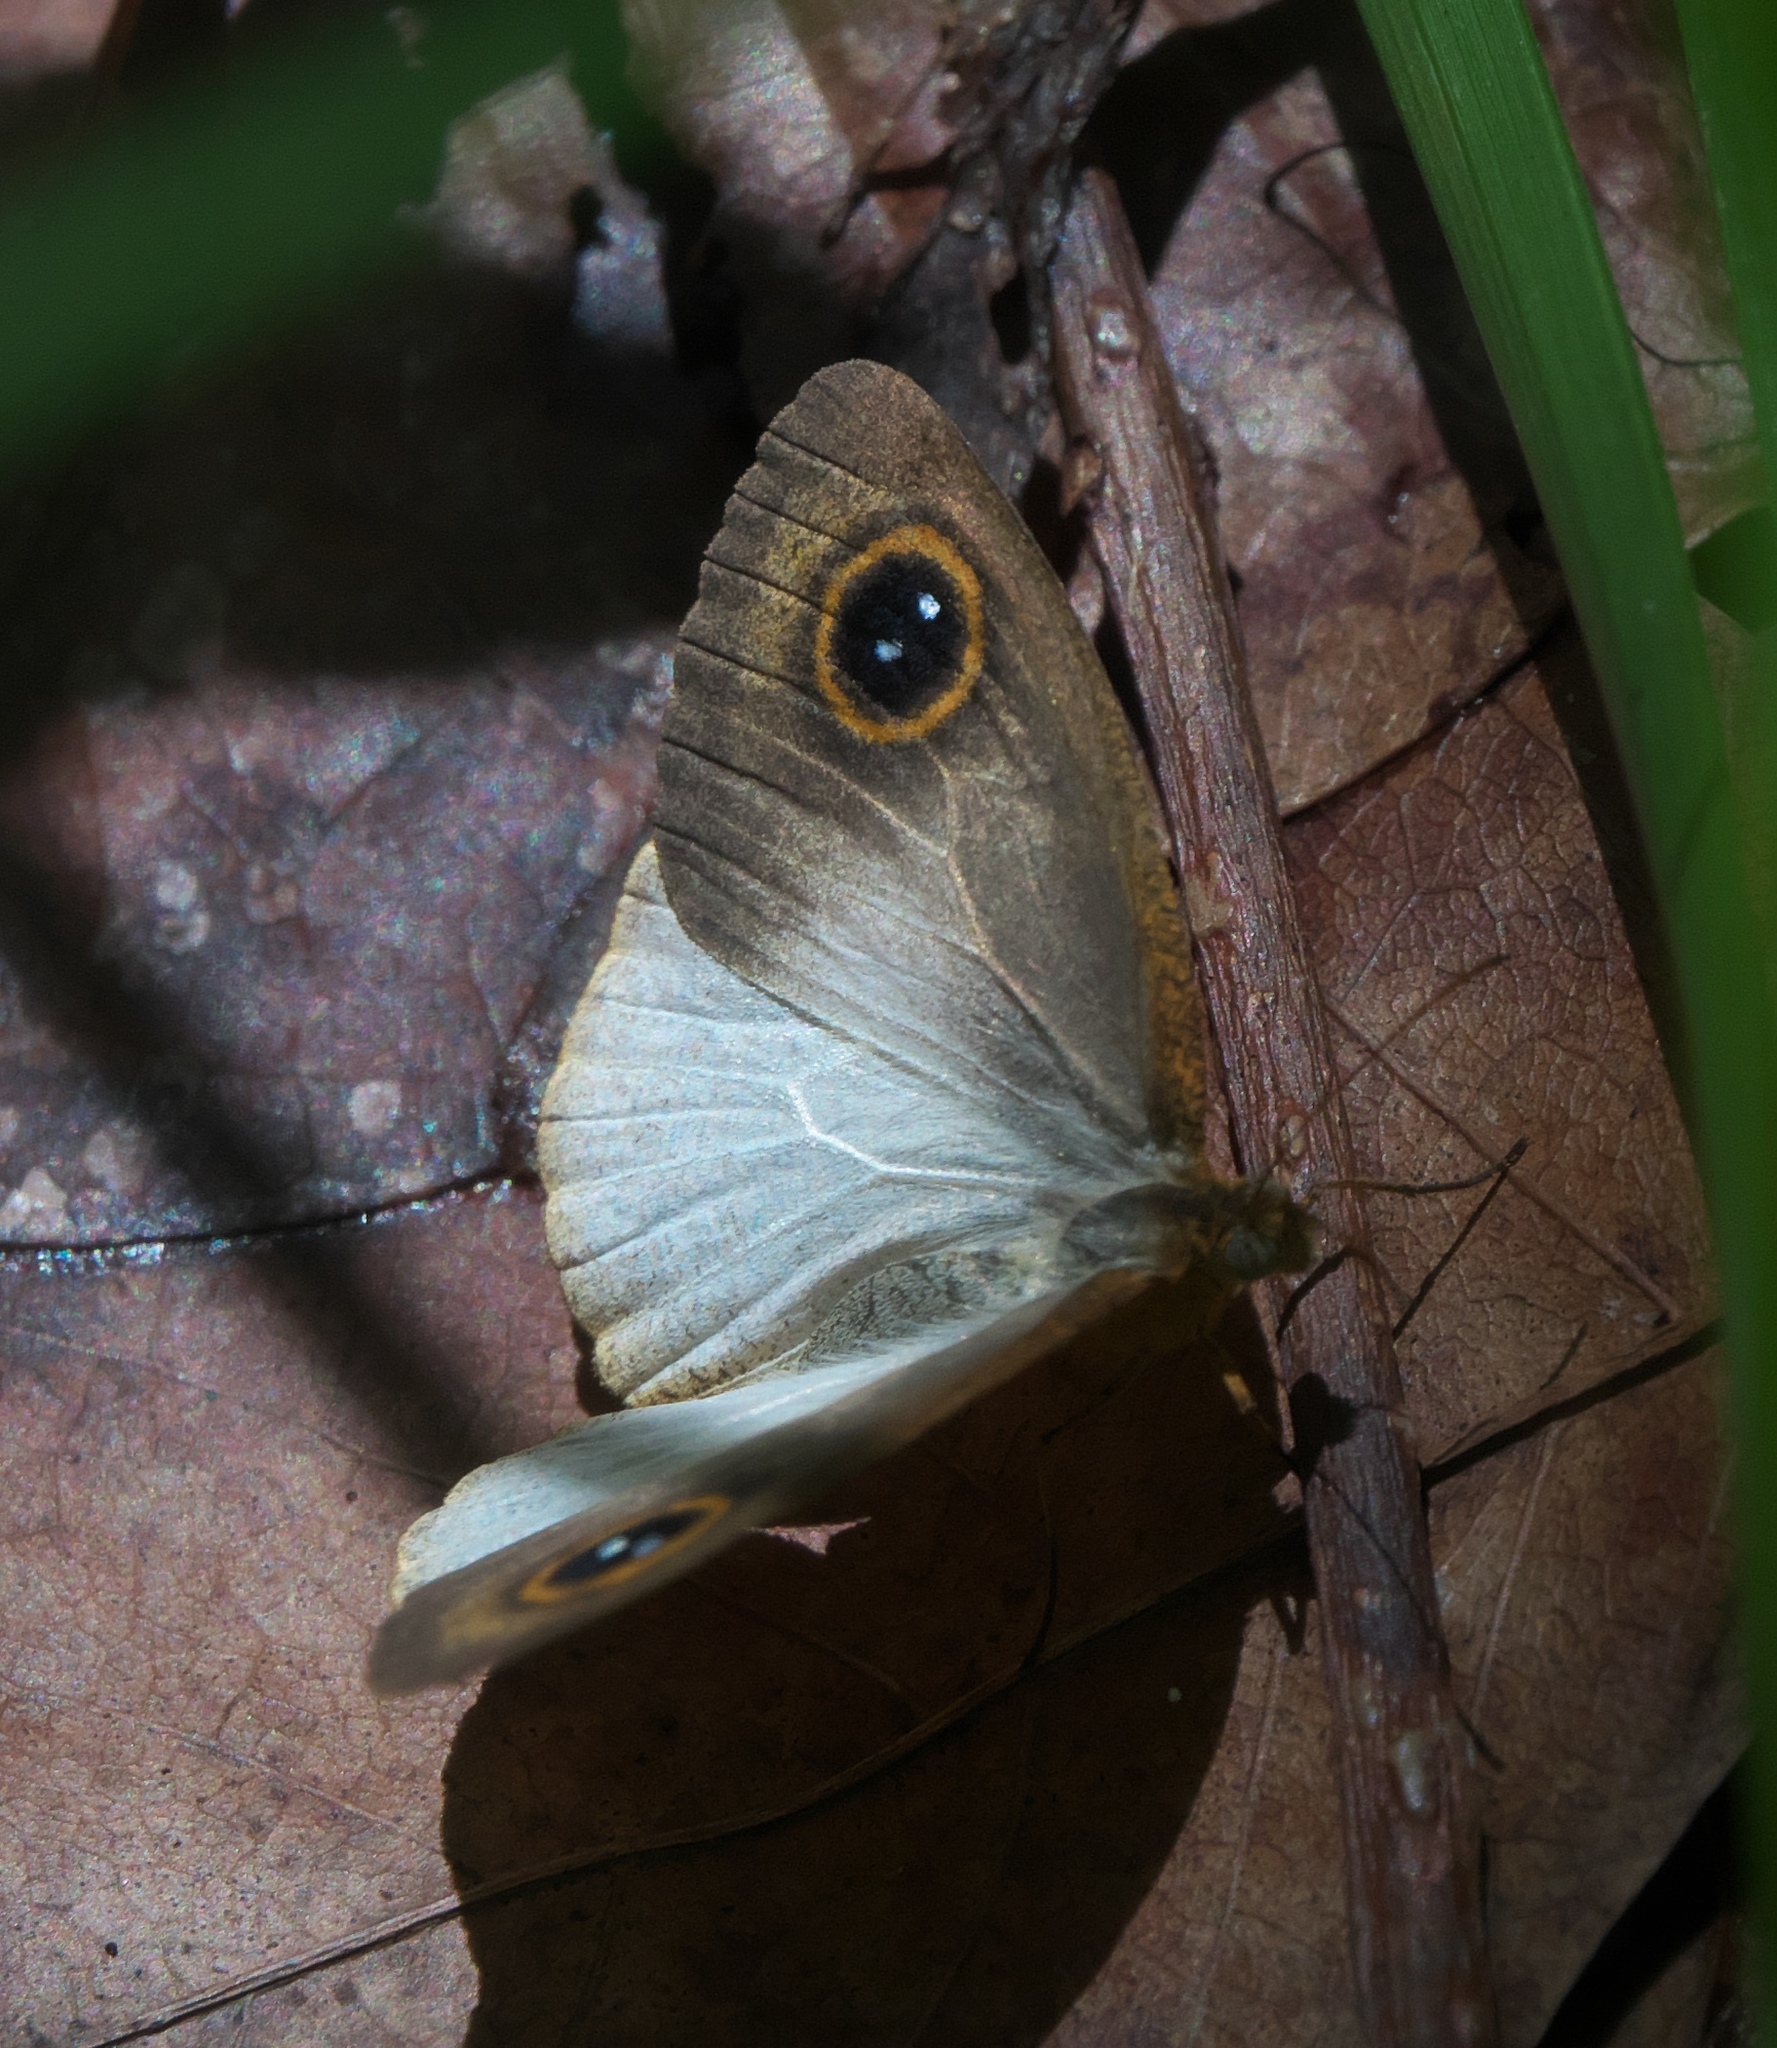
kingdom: Animalia
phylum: Arthropoda
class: Insecta
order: Lepidoptera
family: Nymphalidae
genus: Ypthima
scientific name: Ypthima sesara
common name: Common fijian ringlet
